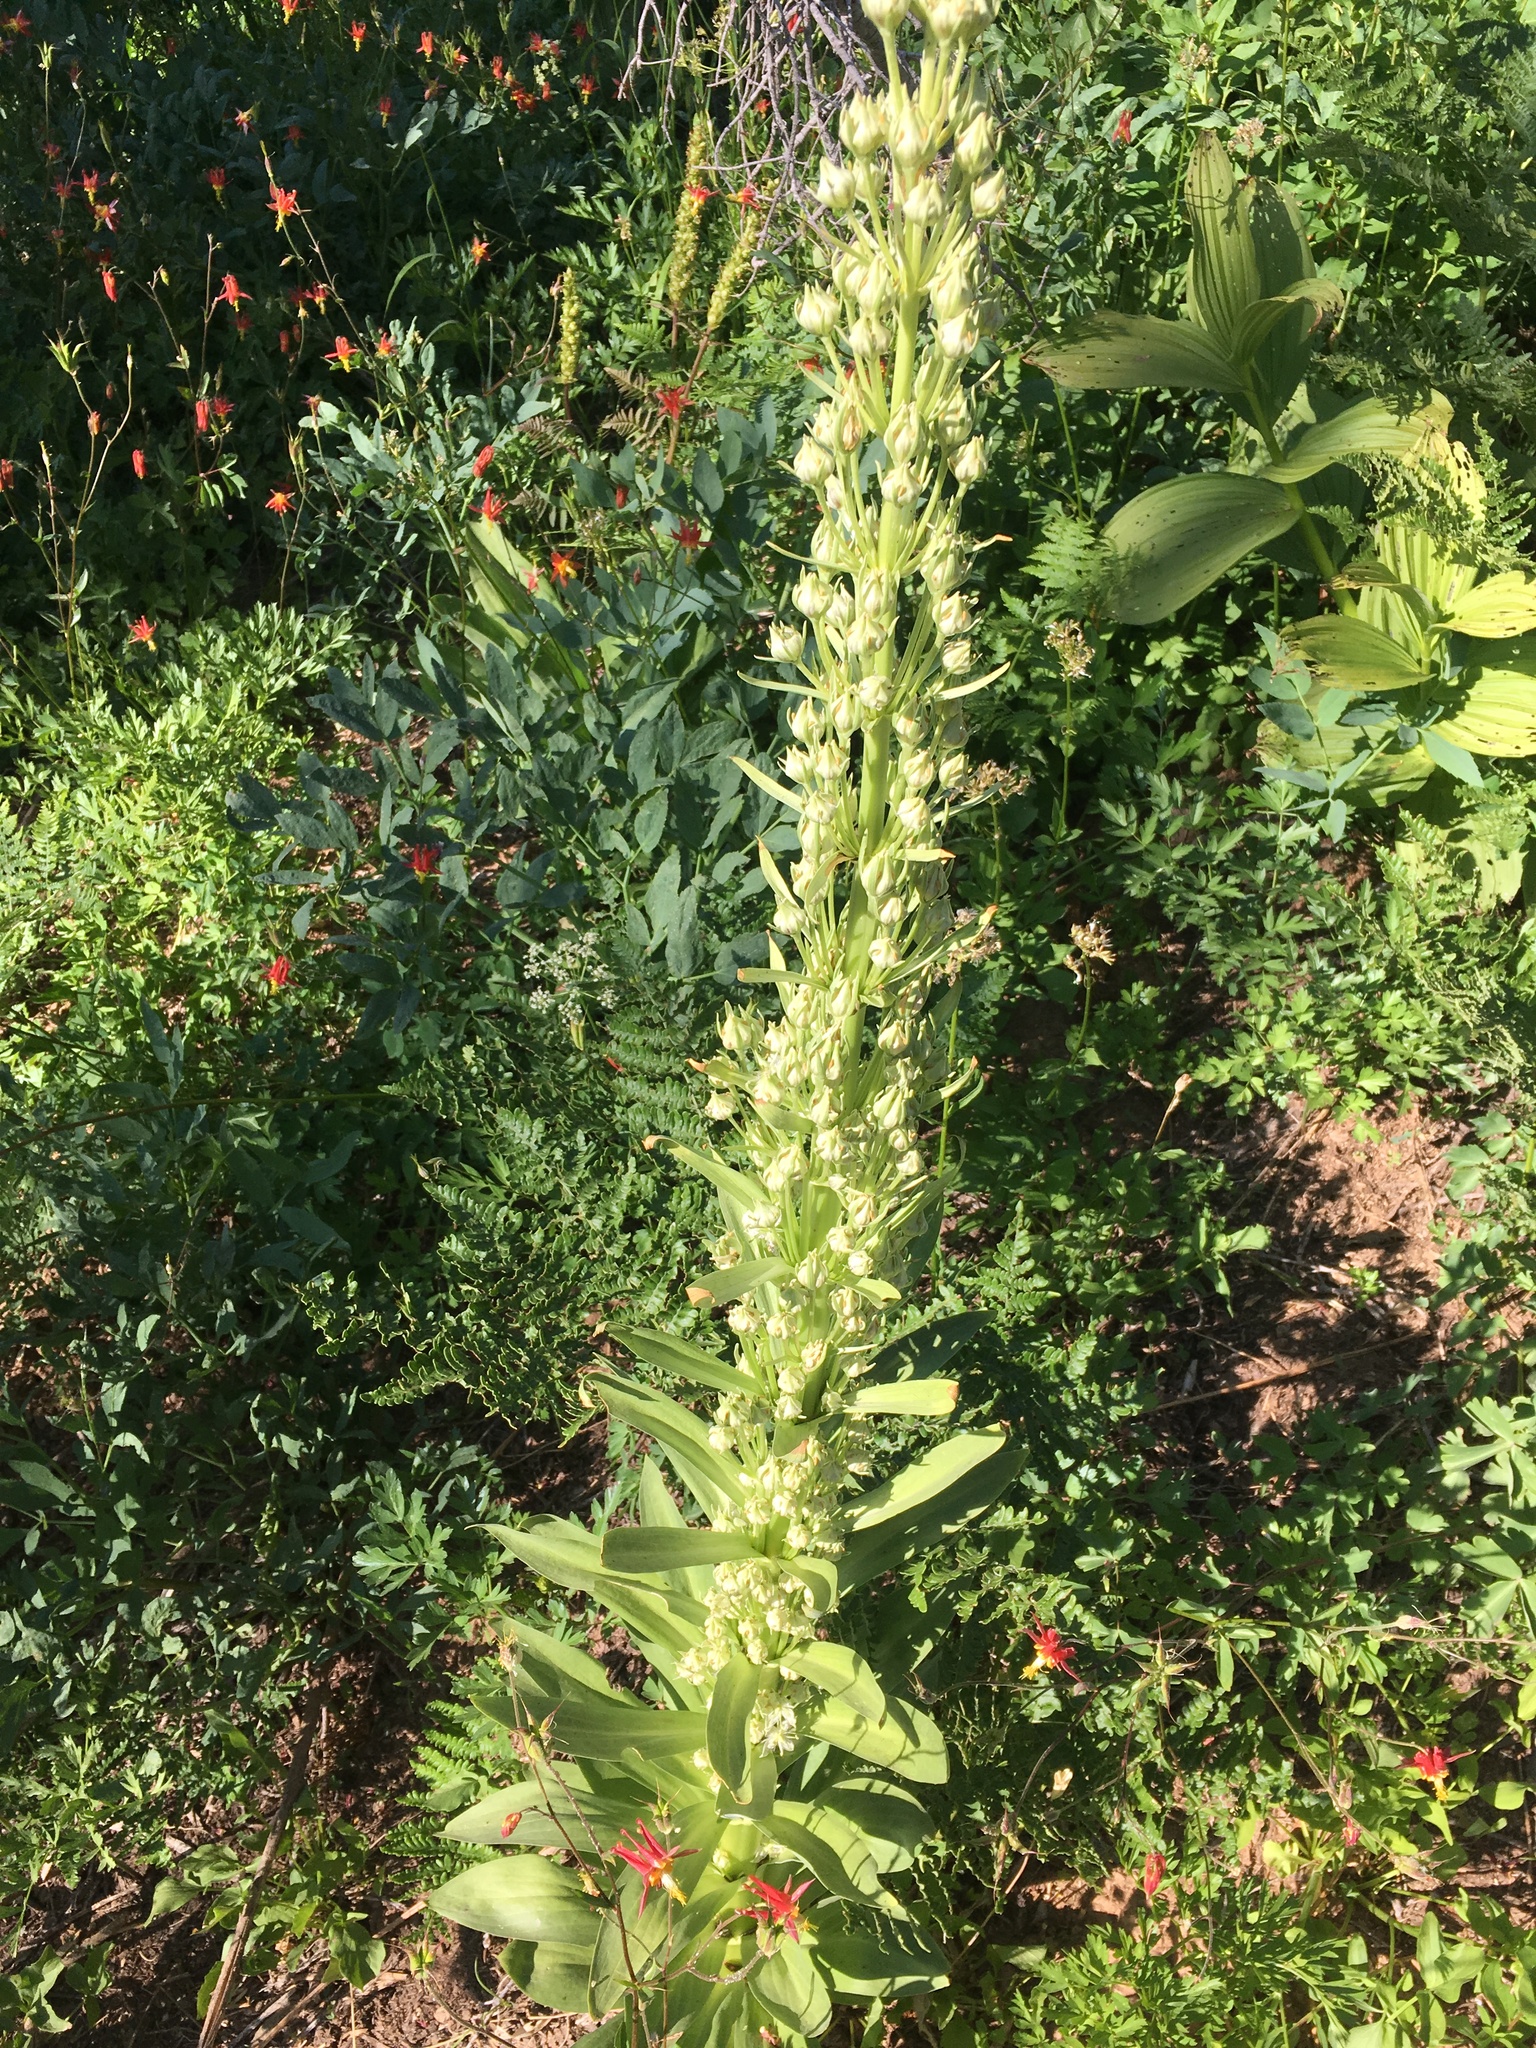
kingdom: Plantae
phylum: Tracheophyta
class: Magnoliopsida
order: Gentianales
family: Gentianaceae
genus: Frasera
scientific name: Frasera speciosa
